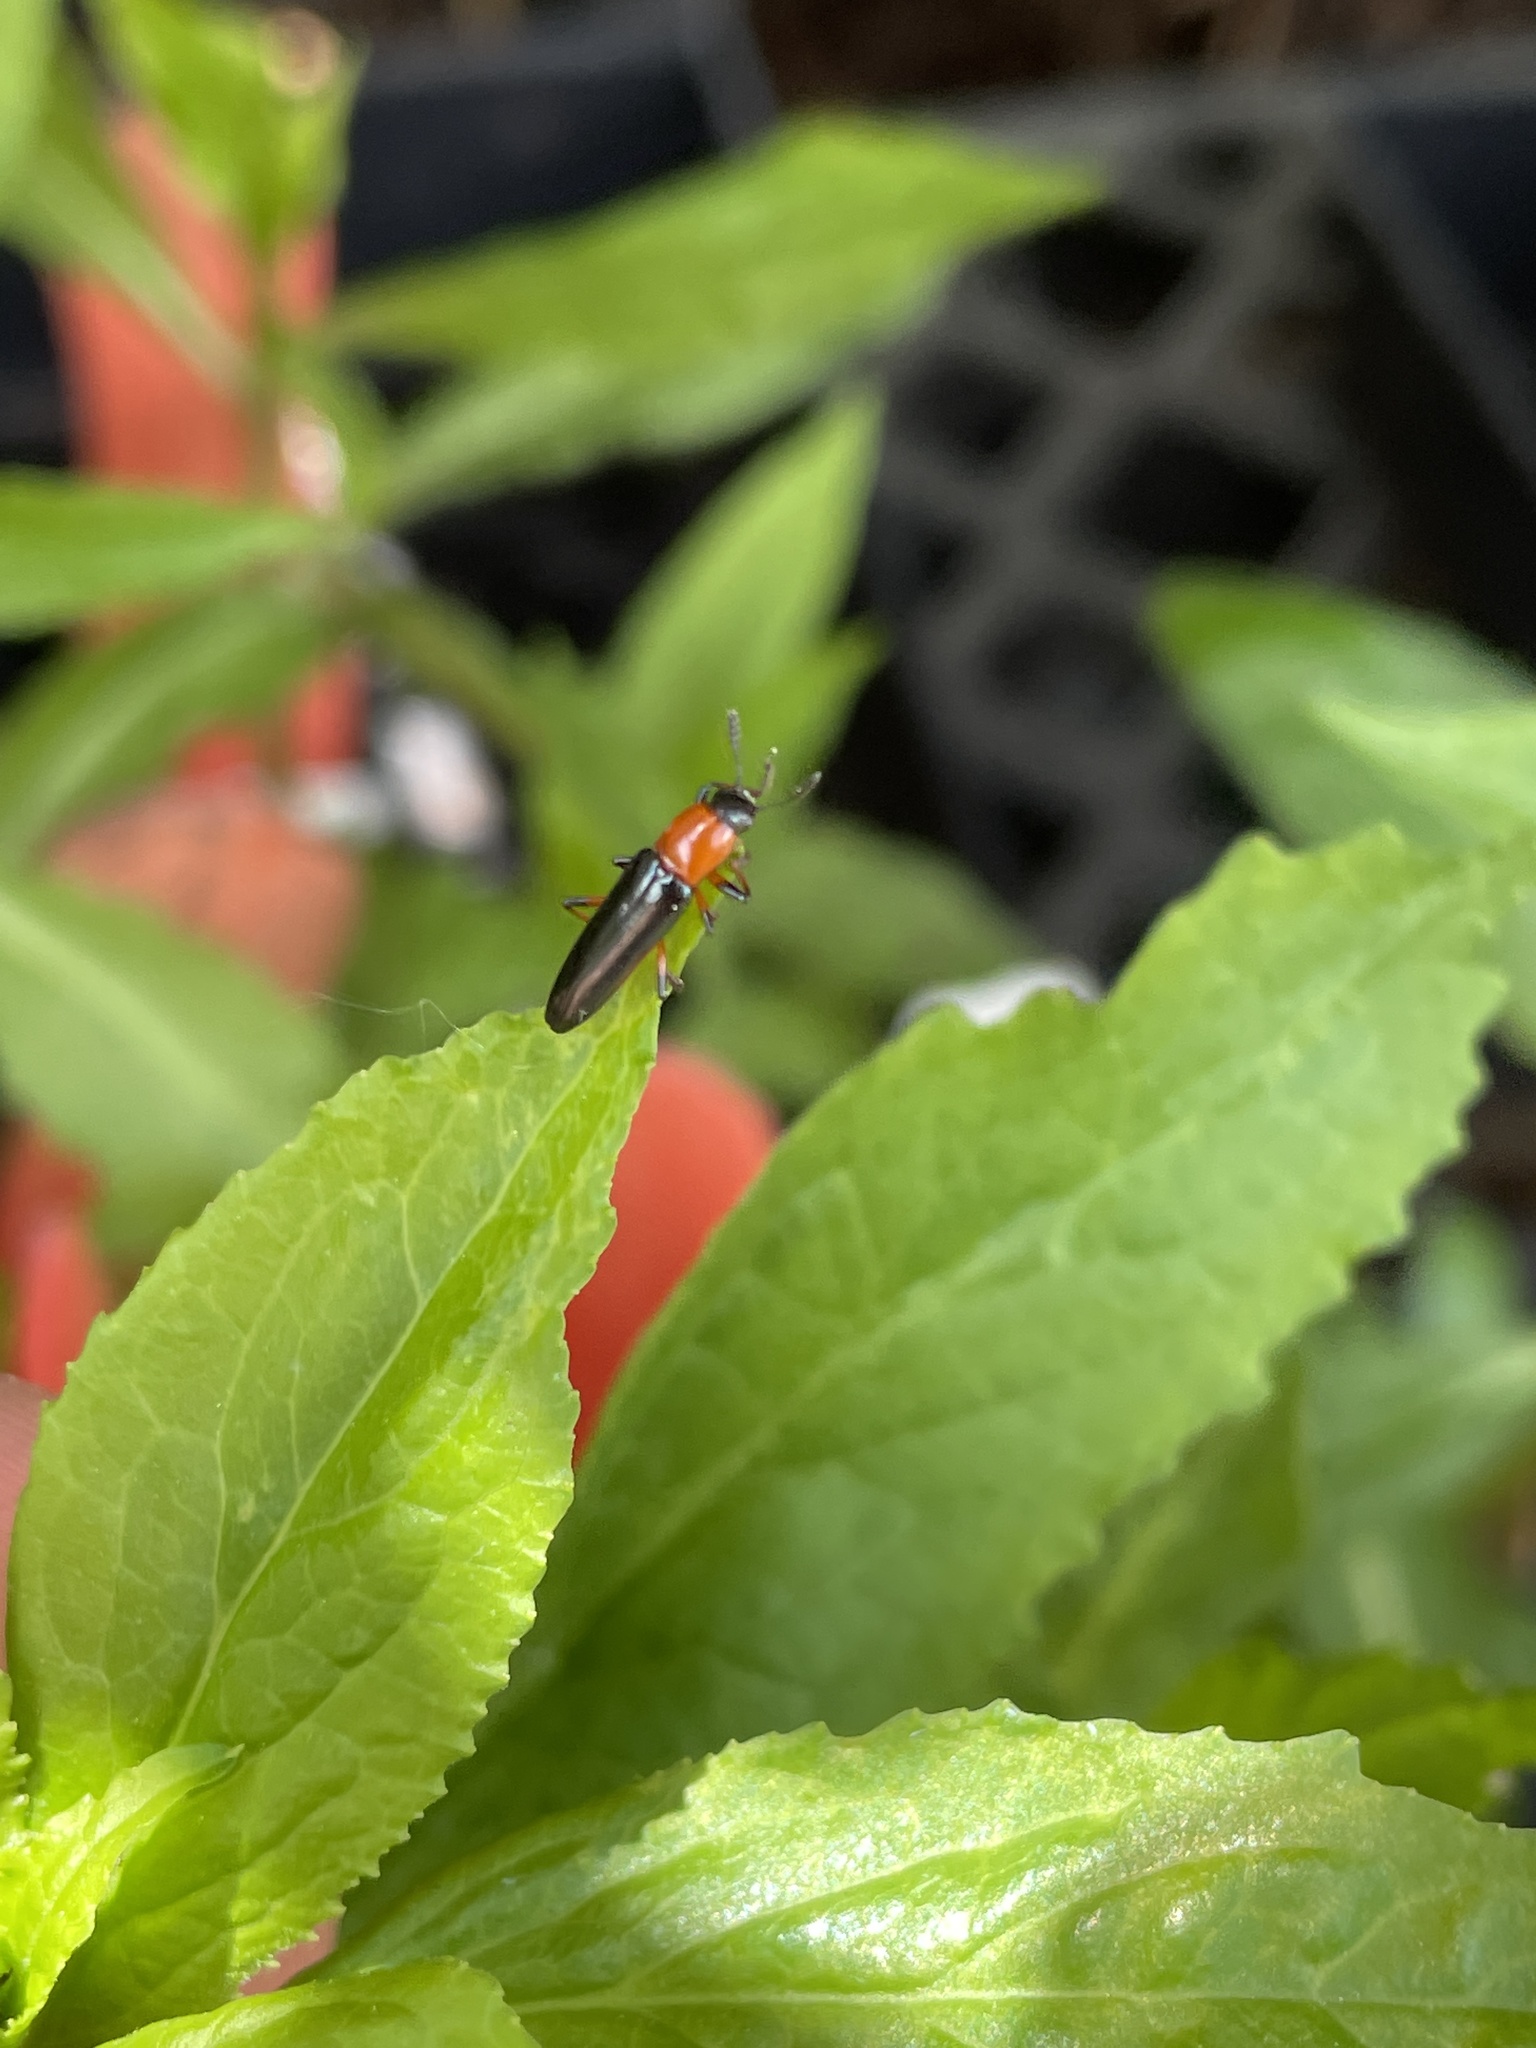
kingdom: Animalia
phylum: Arthropoda
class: Insecta
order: Coleoptera
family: Erotylidae
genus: Languria
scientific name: Languria angustata
